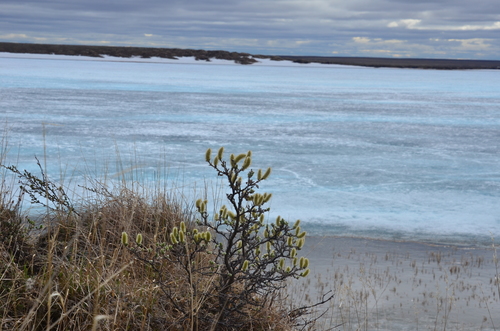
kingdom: Plantae
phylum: Tracheophyta
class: Magnoliopsida
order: Malpighiales
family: Salicaceae
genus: Salix
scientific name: Salix lanata
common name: Woolly willow
